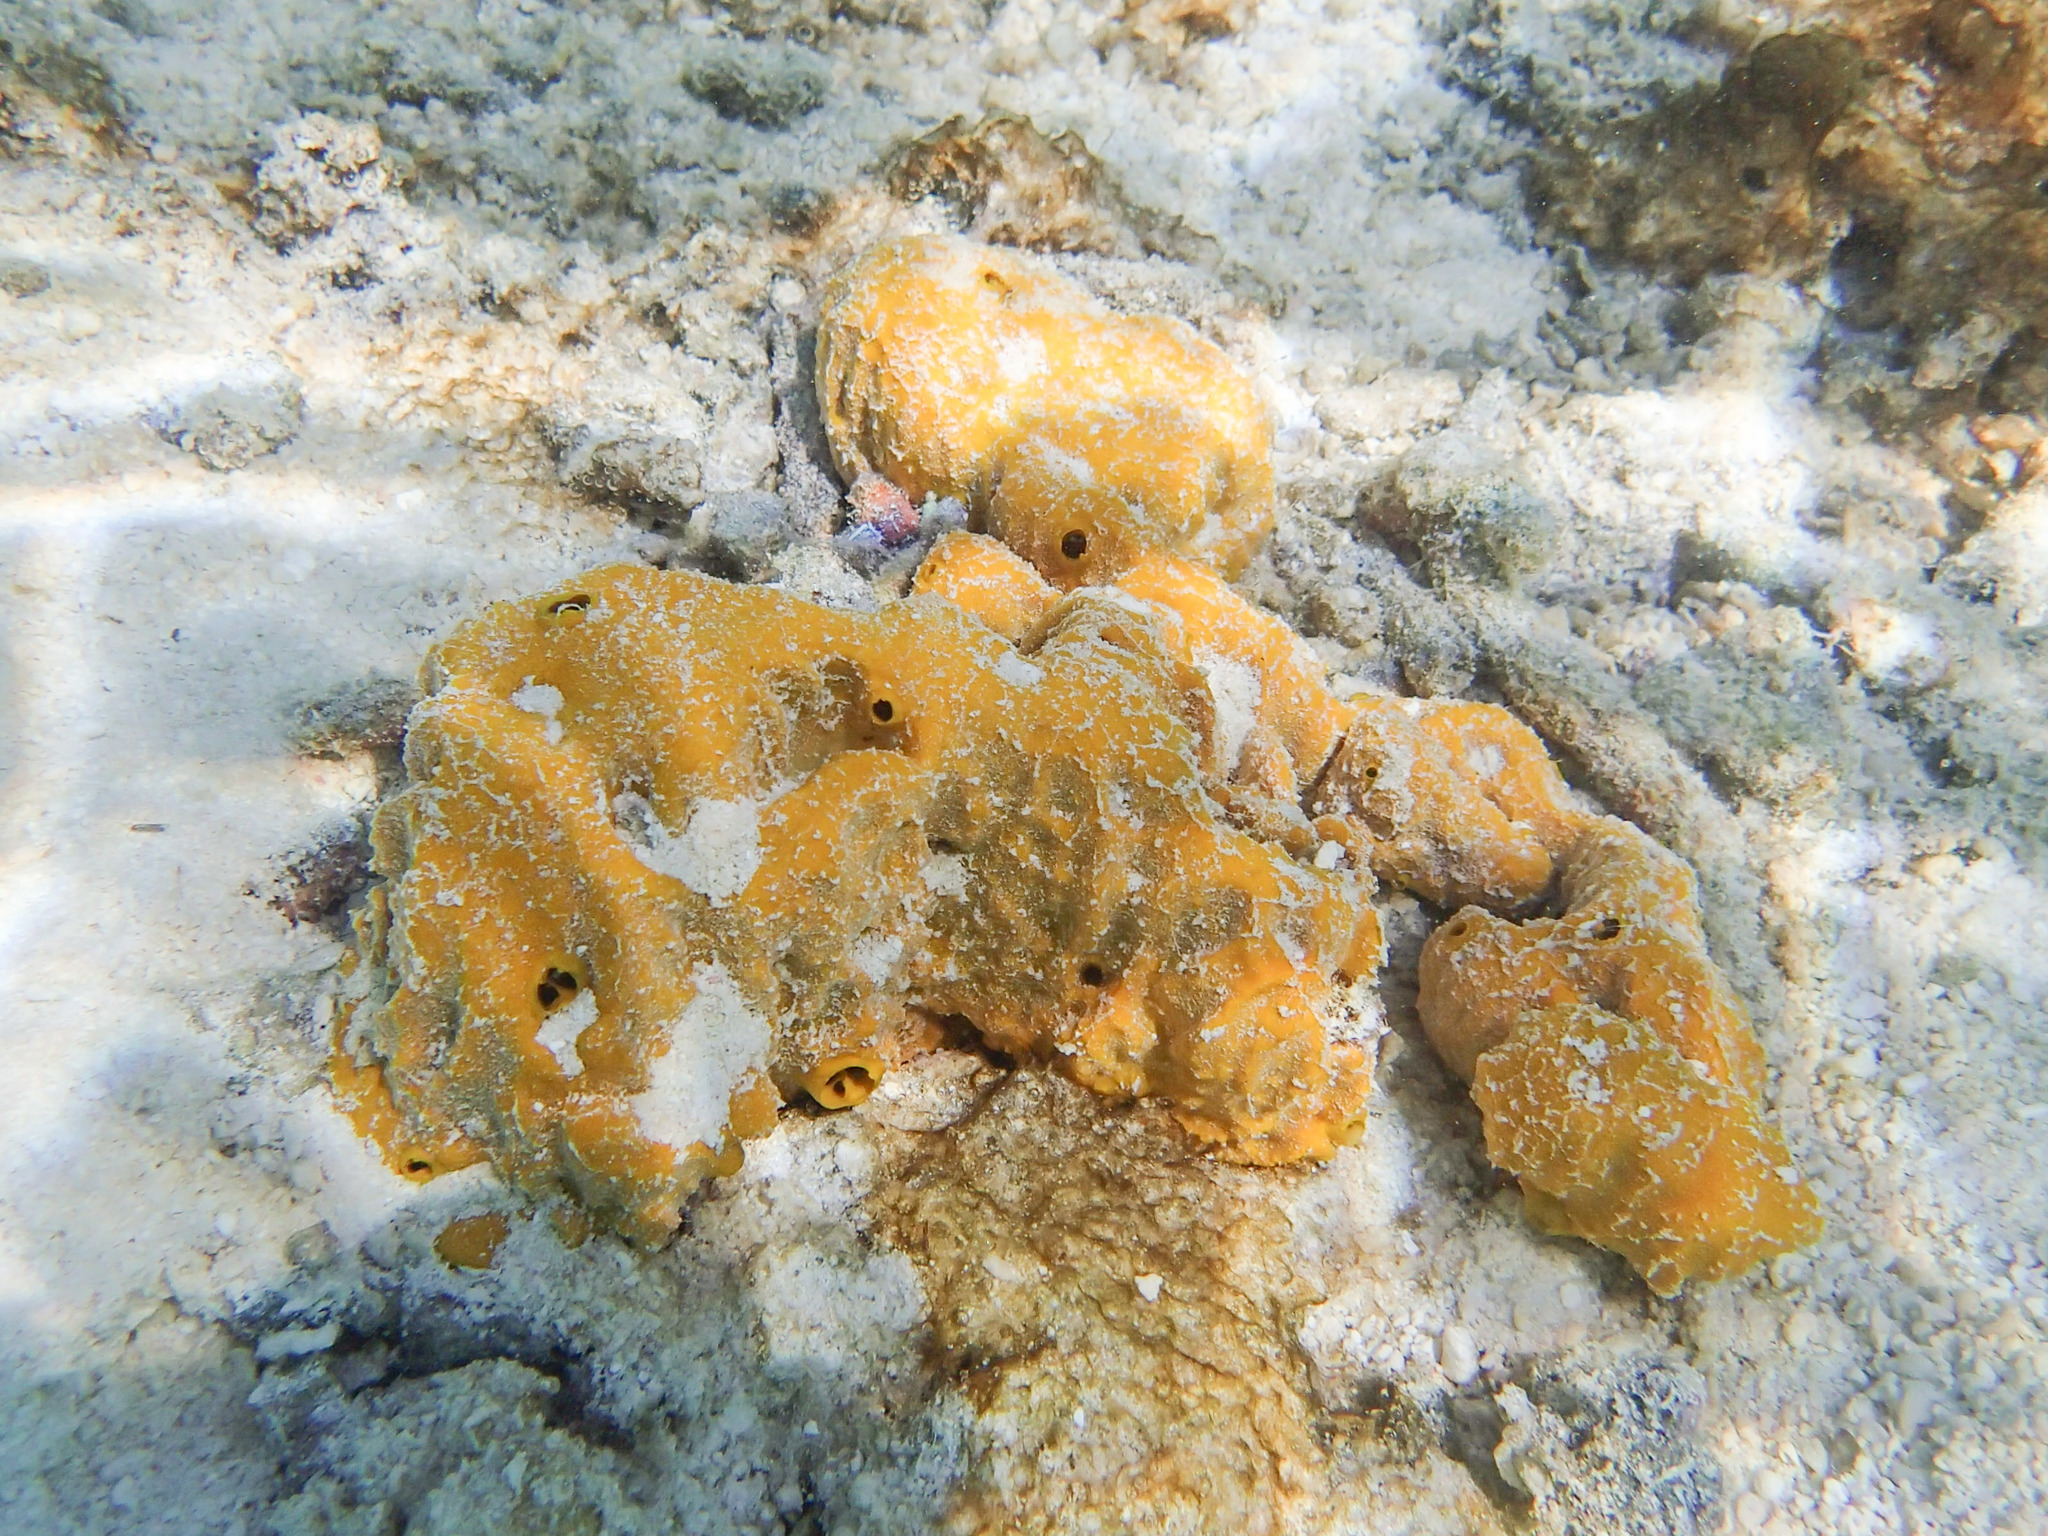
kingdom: Animalia
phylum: Porifera
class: Demospongiae
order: Scopalinida
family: Scopalinidae
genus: Stylissa
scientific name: Stylissa massa
